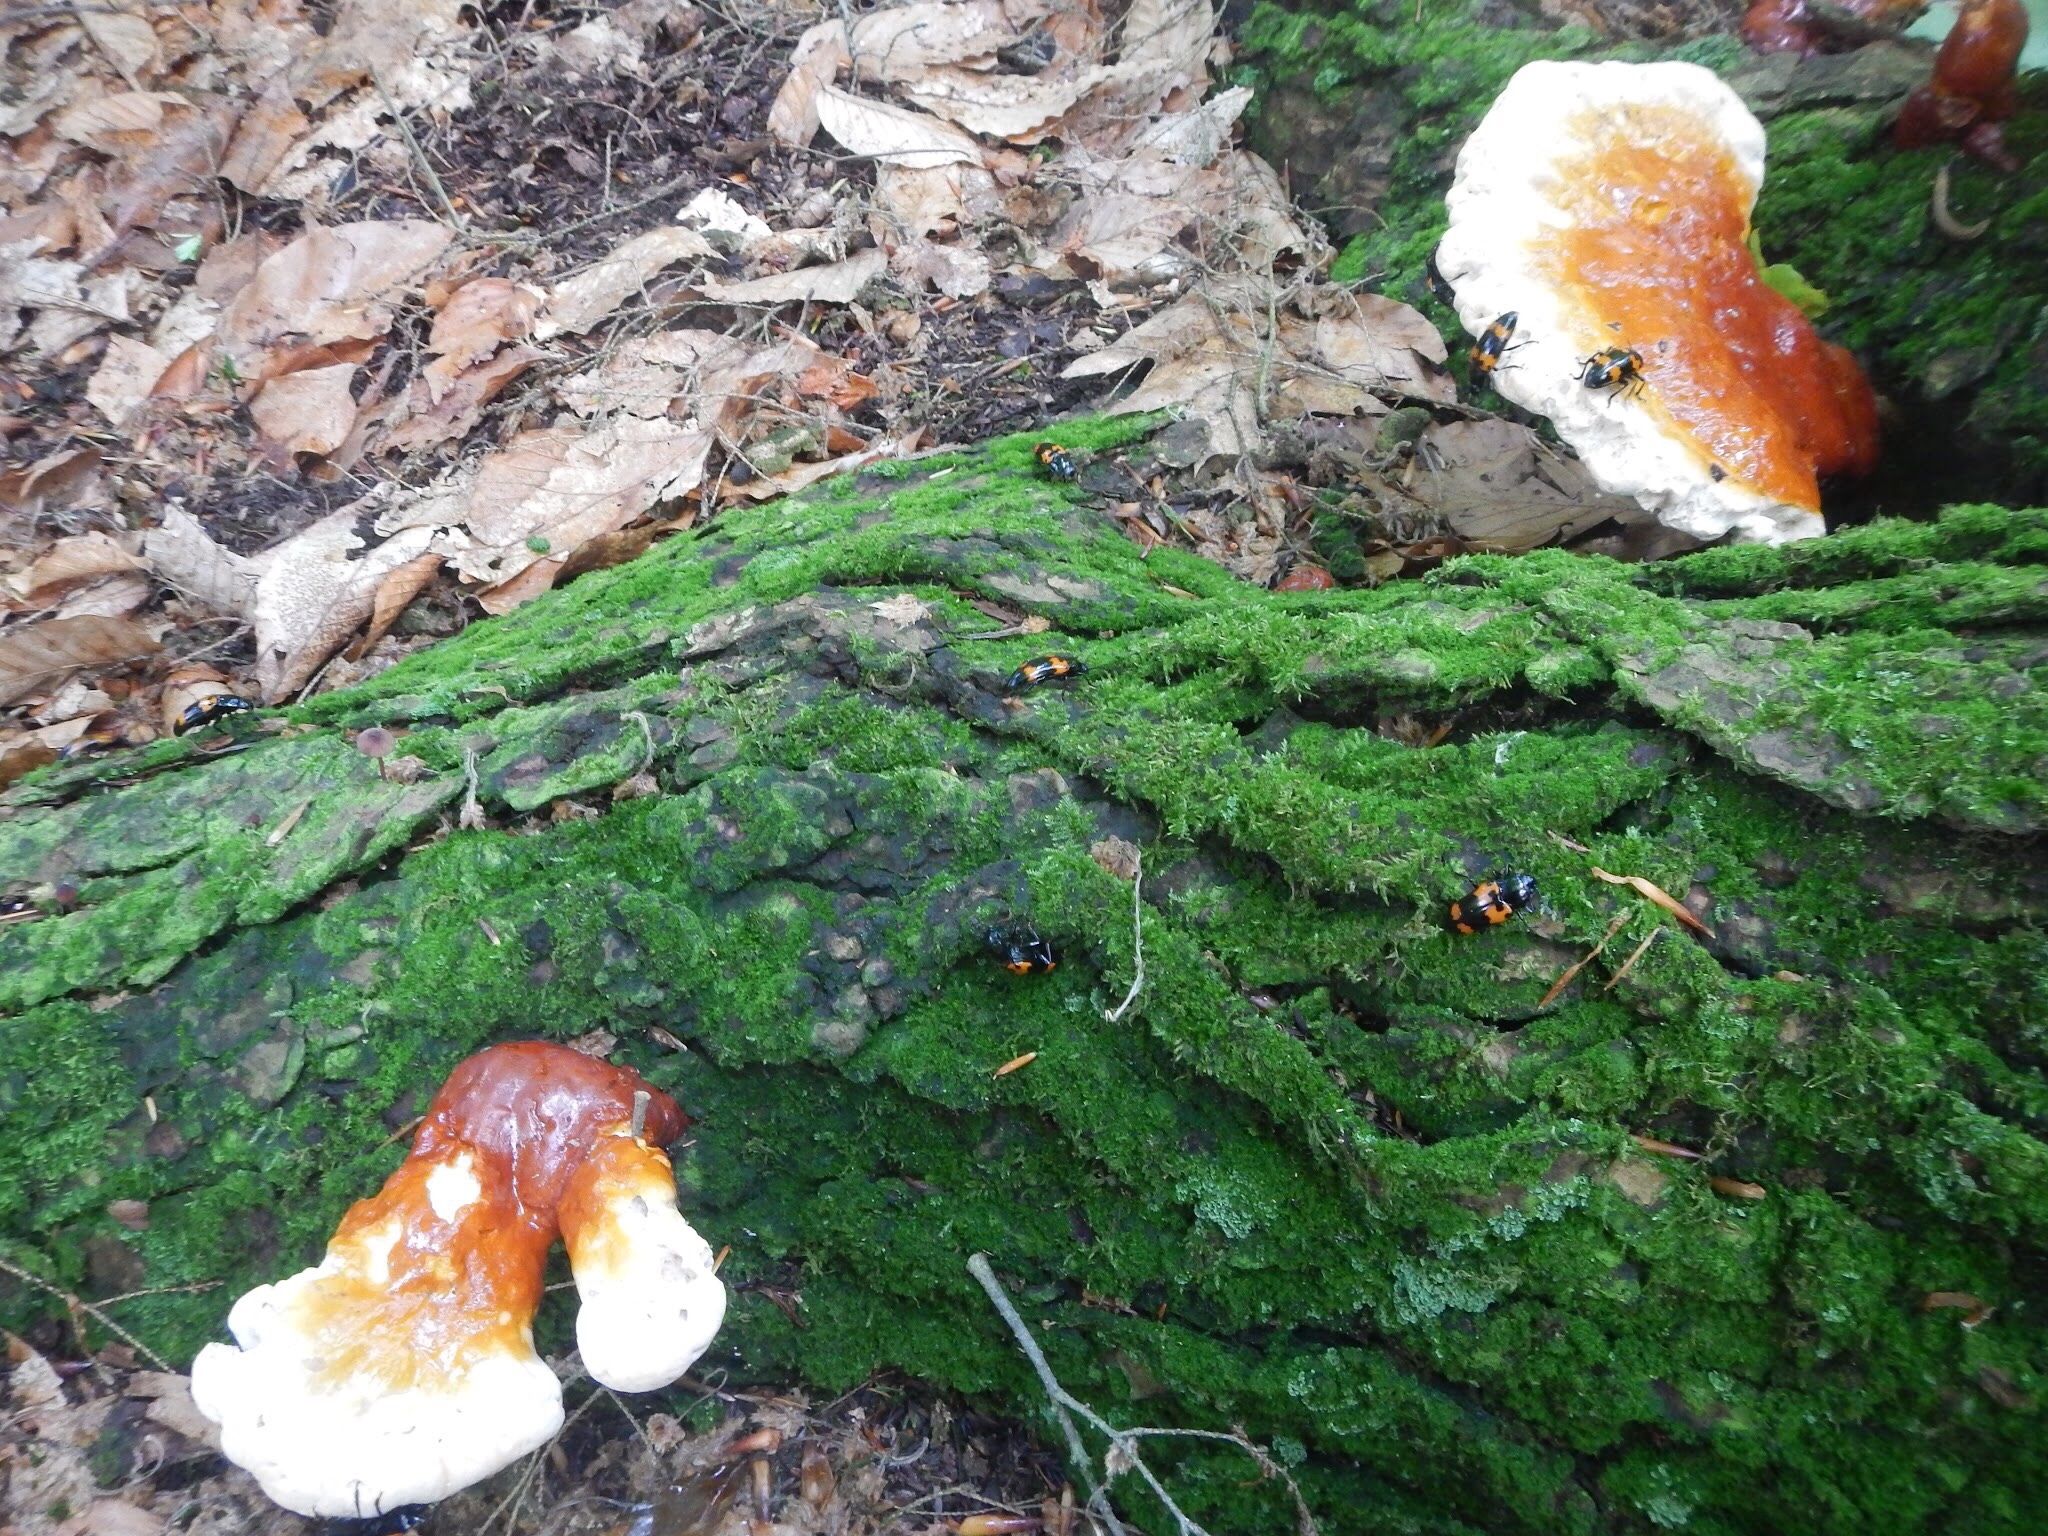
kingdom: Animalia
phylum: Arthropoda
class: Insecta
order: Coleoptera
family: Erotylidae
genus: Megalodacne
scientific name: Megalodacne heros
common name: Pleasing fungus beetle
